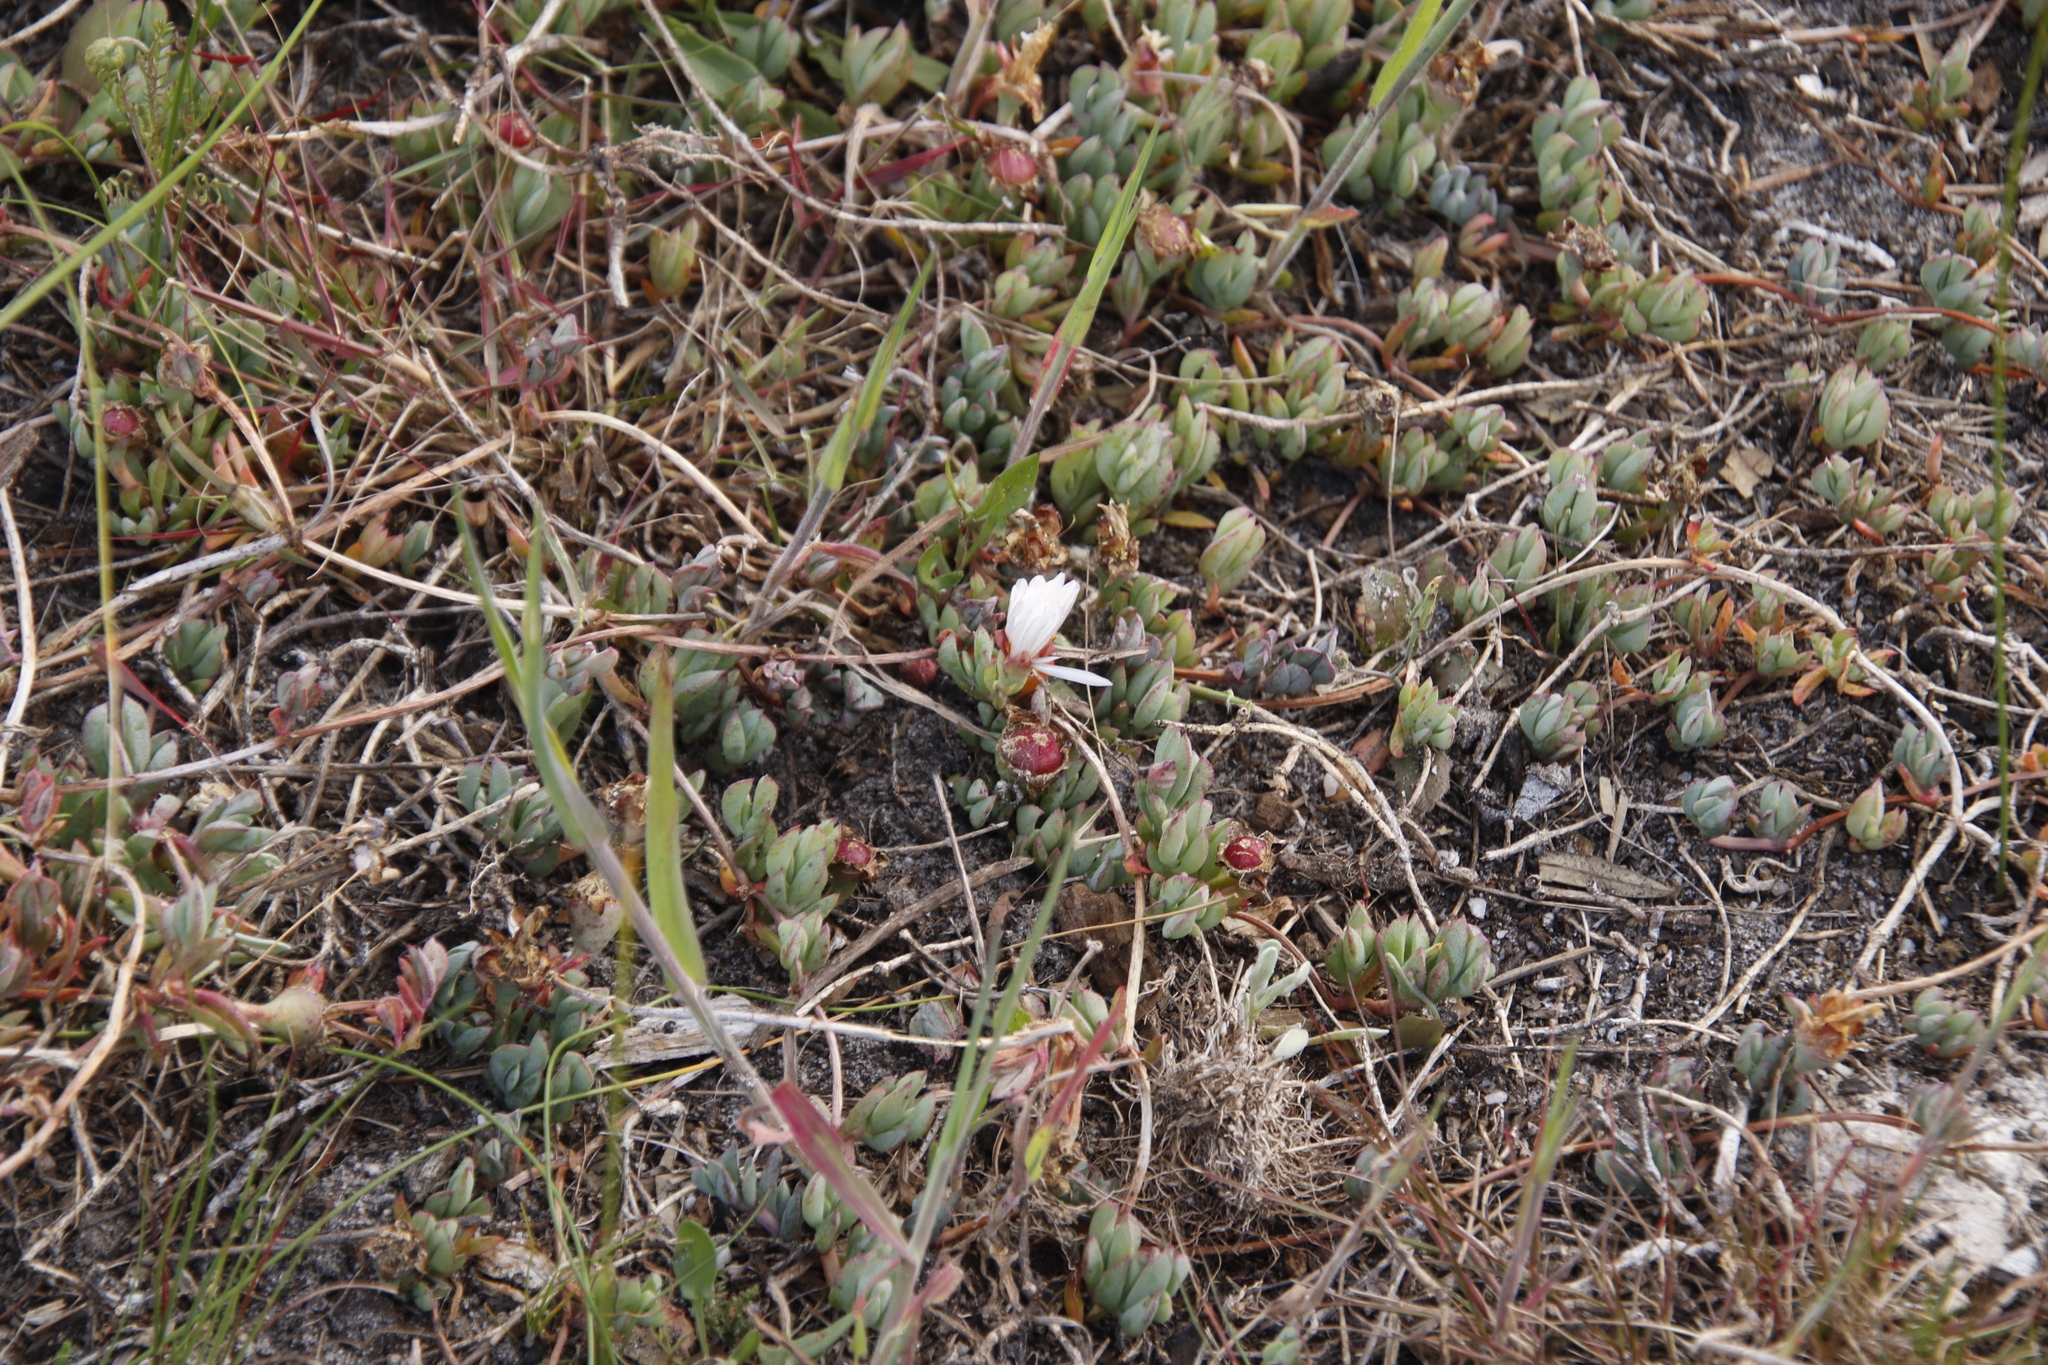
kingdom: Plantae
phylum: Tracheophyta
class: Magnoliopsida
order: Caryophyllales
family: Aizoaceae
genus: Lampranthus
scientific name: Lampranthus reptans
